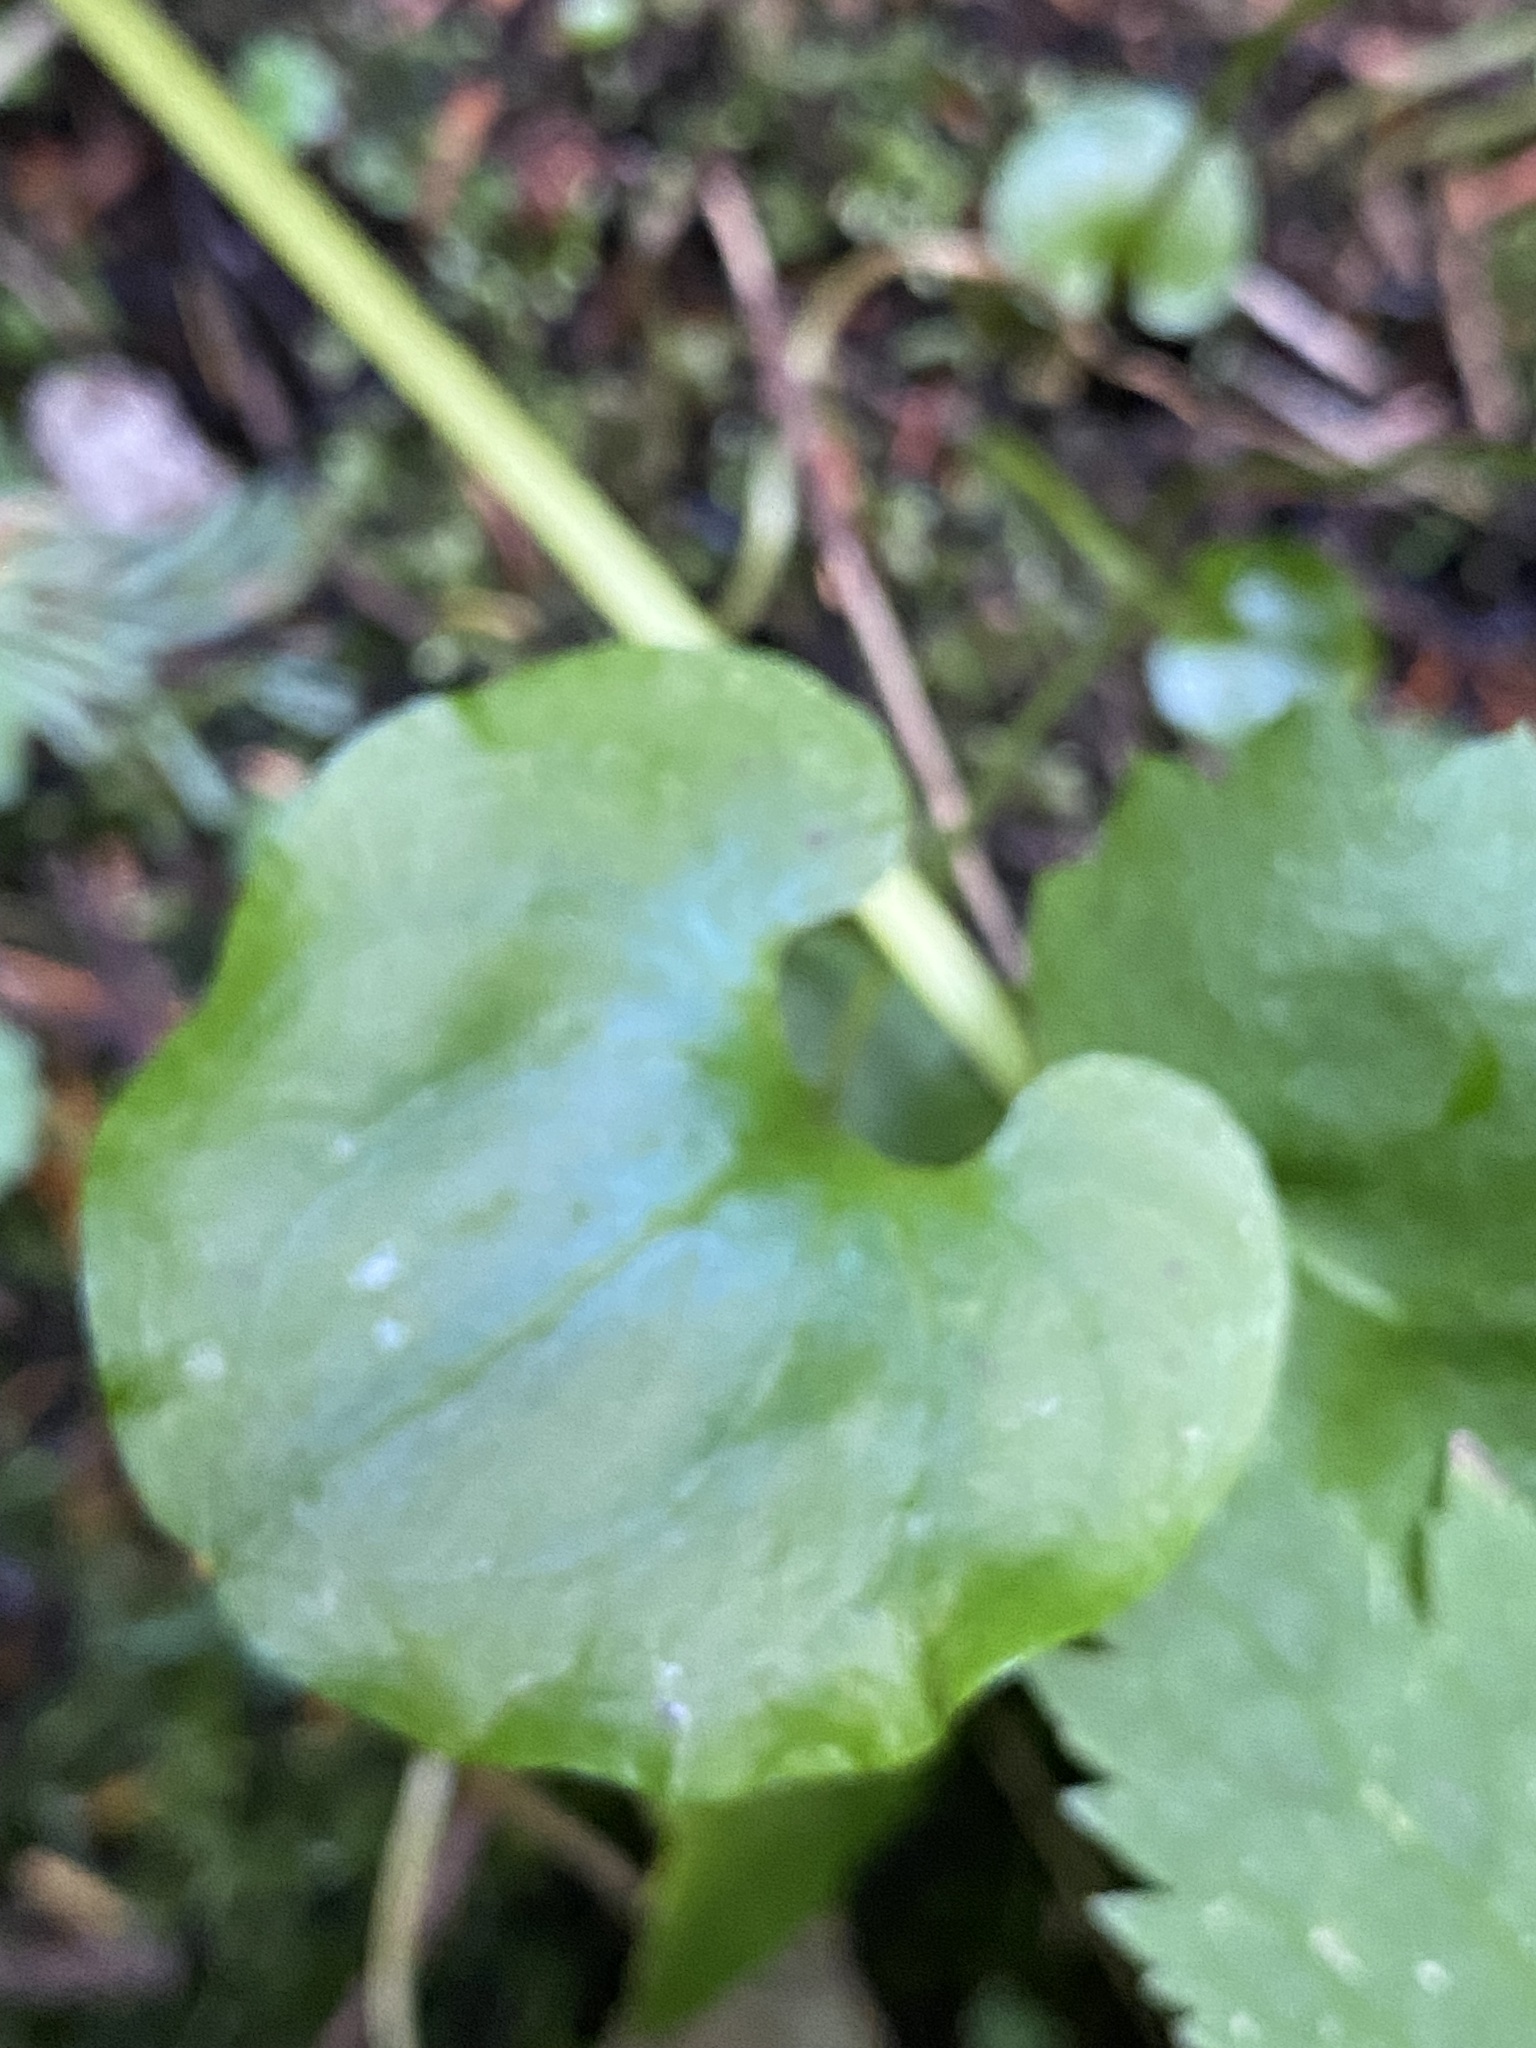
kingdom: Plantae
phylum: Tracheophyta
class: Magnoliopsida
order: Celastrales
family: Parnassiaceae
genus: Parnassia
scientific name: Parnassia fimbriata
